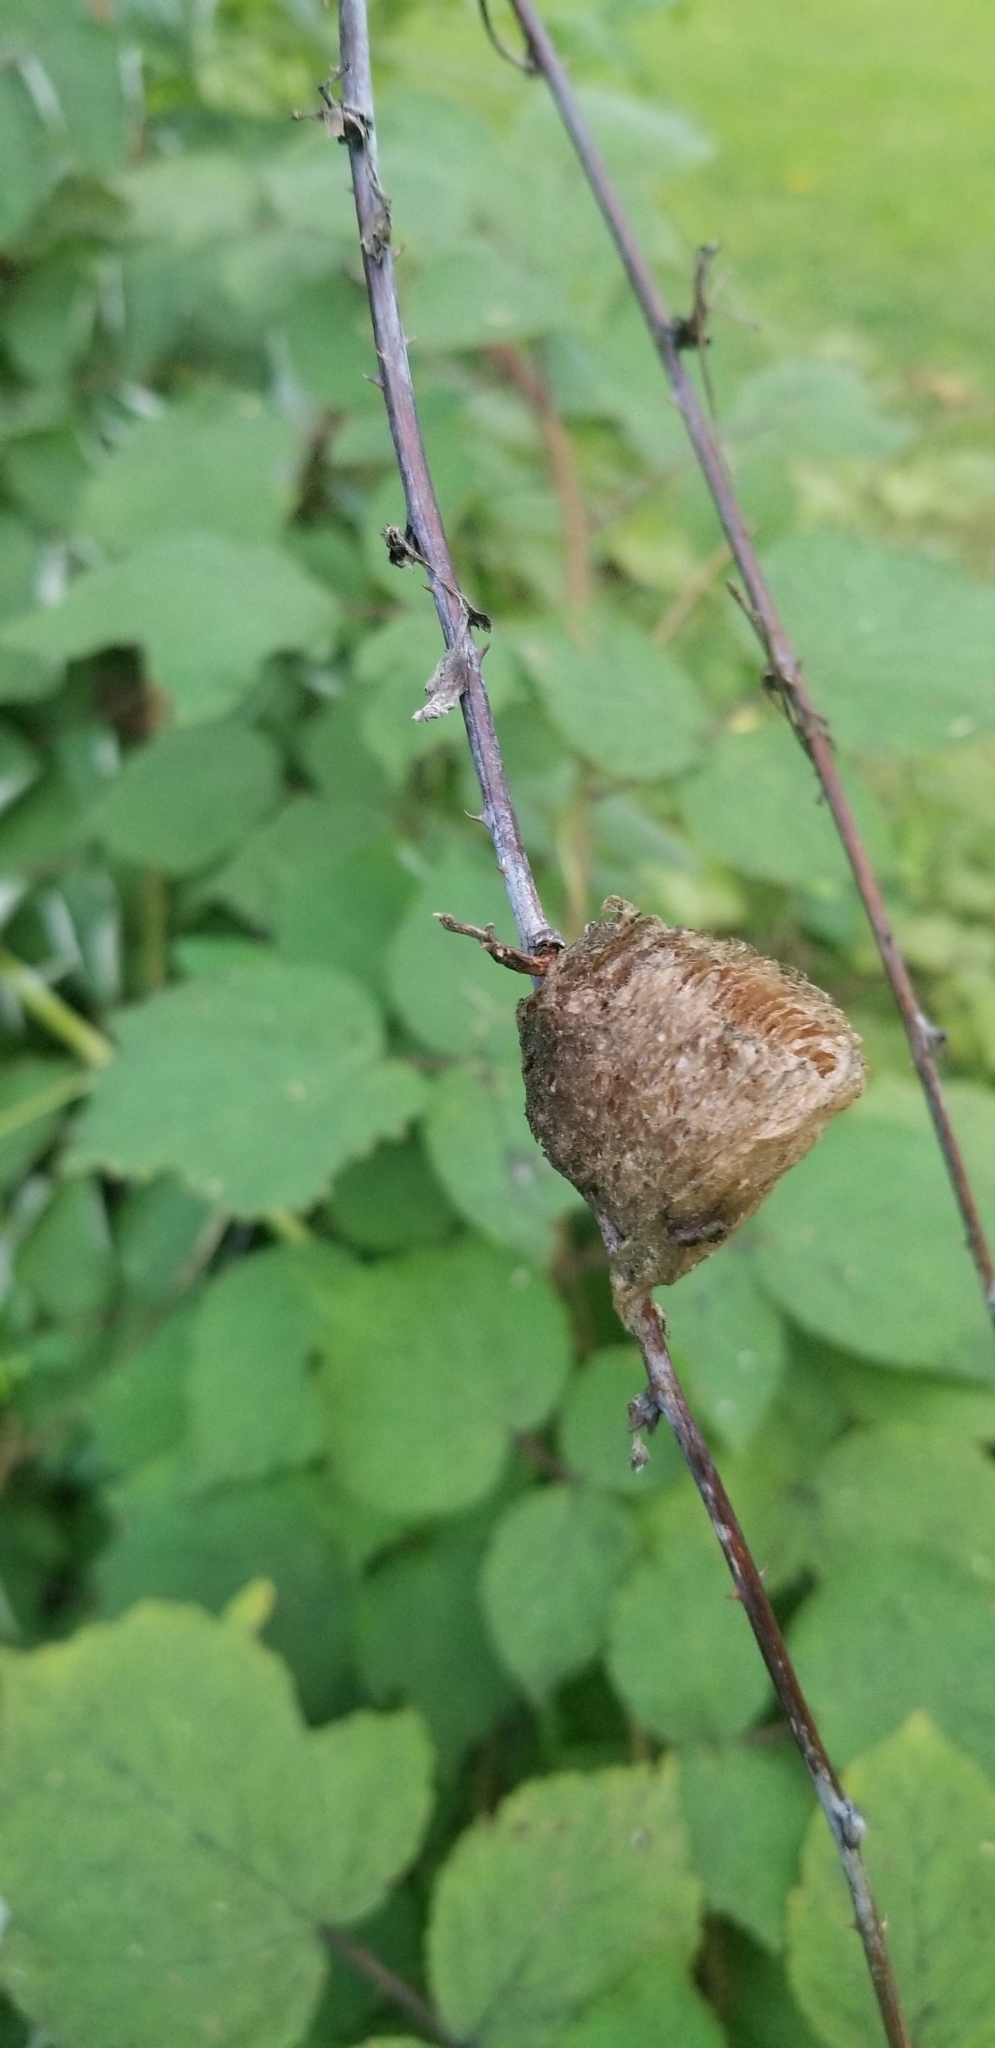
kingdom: Animalia
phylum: Arthropoda
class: Insecta
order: Mantodea
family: Mantidae
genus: Tenodera
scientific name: Tenodera sinensis
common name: Chinese mantis
